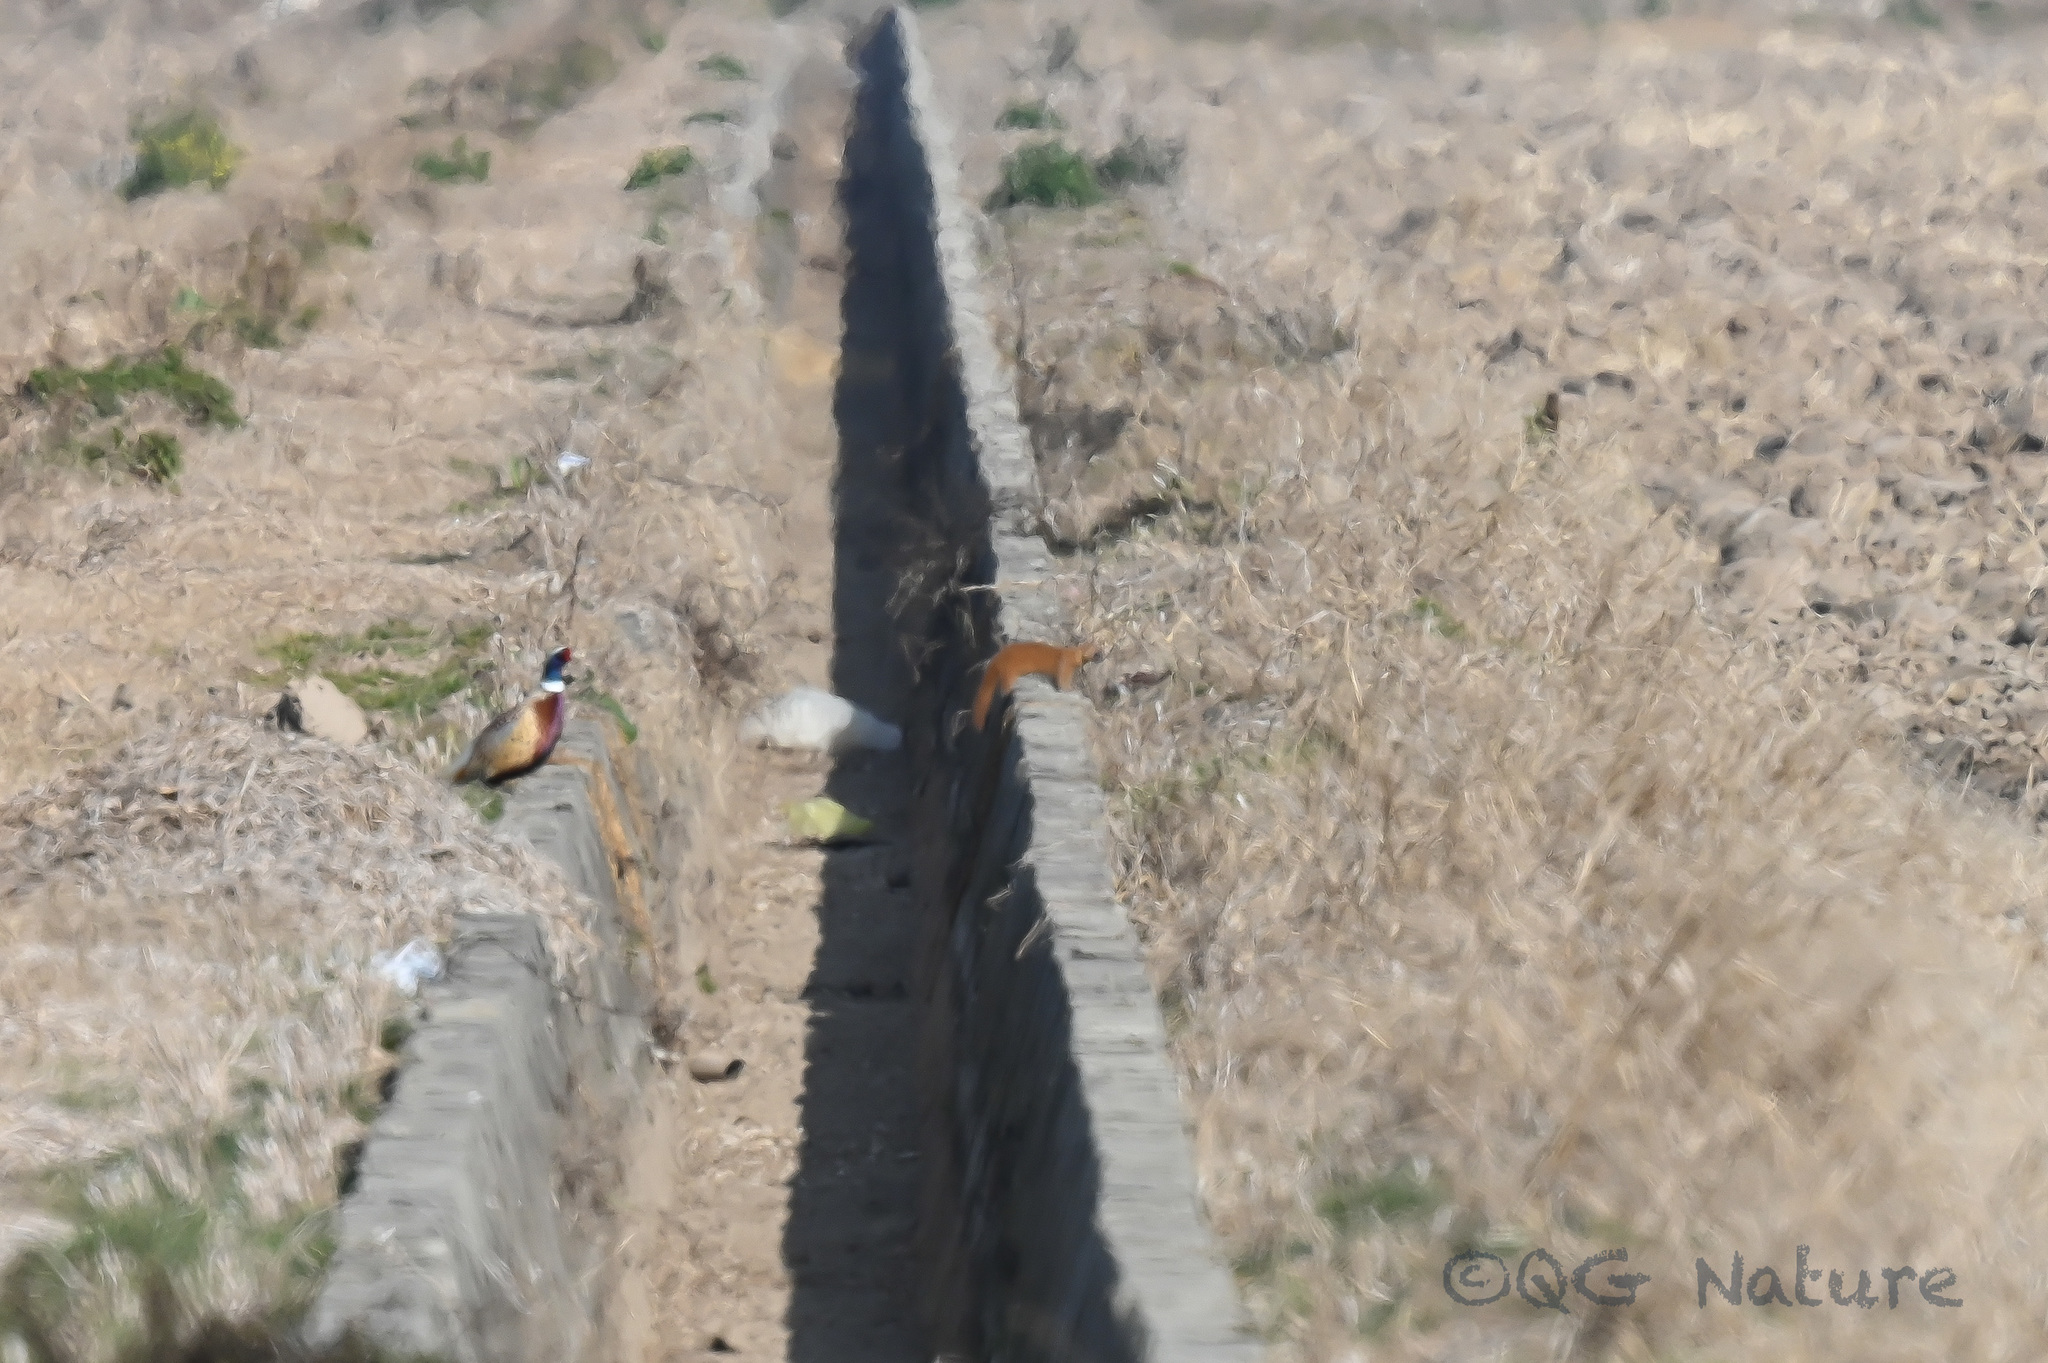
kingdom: Animalia
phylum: Chordata
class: Mammalia
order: Carnivora
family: Mustelidae
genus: Mustela
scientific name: Mustela sibirica
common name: Siberian weasel
